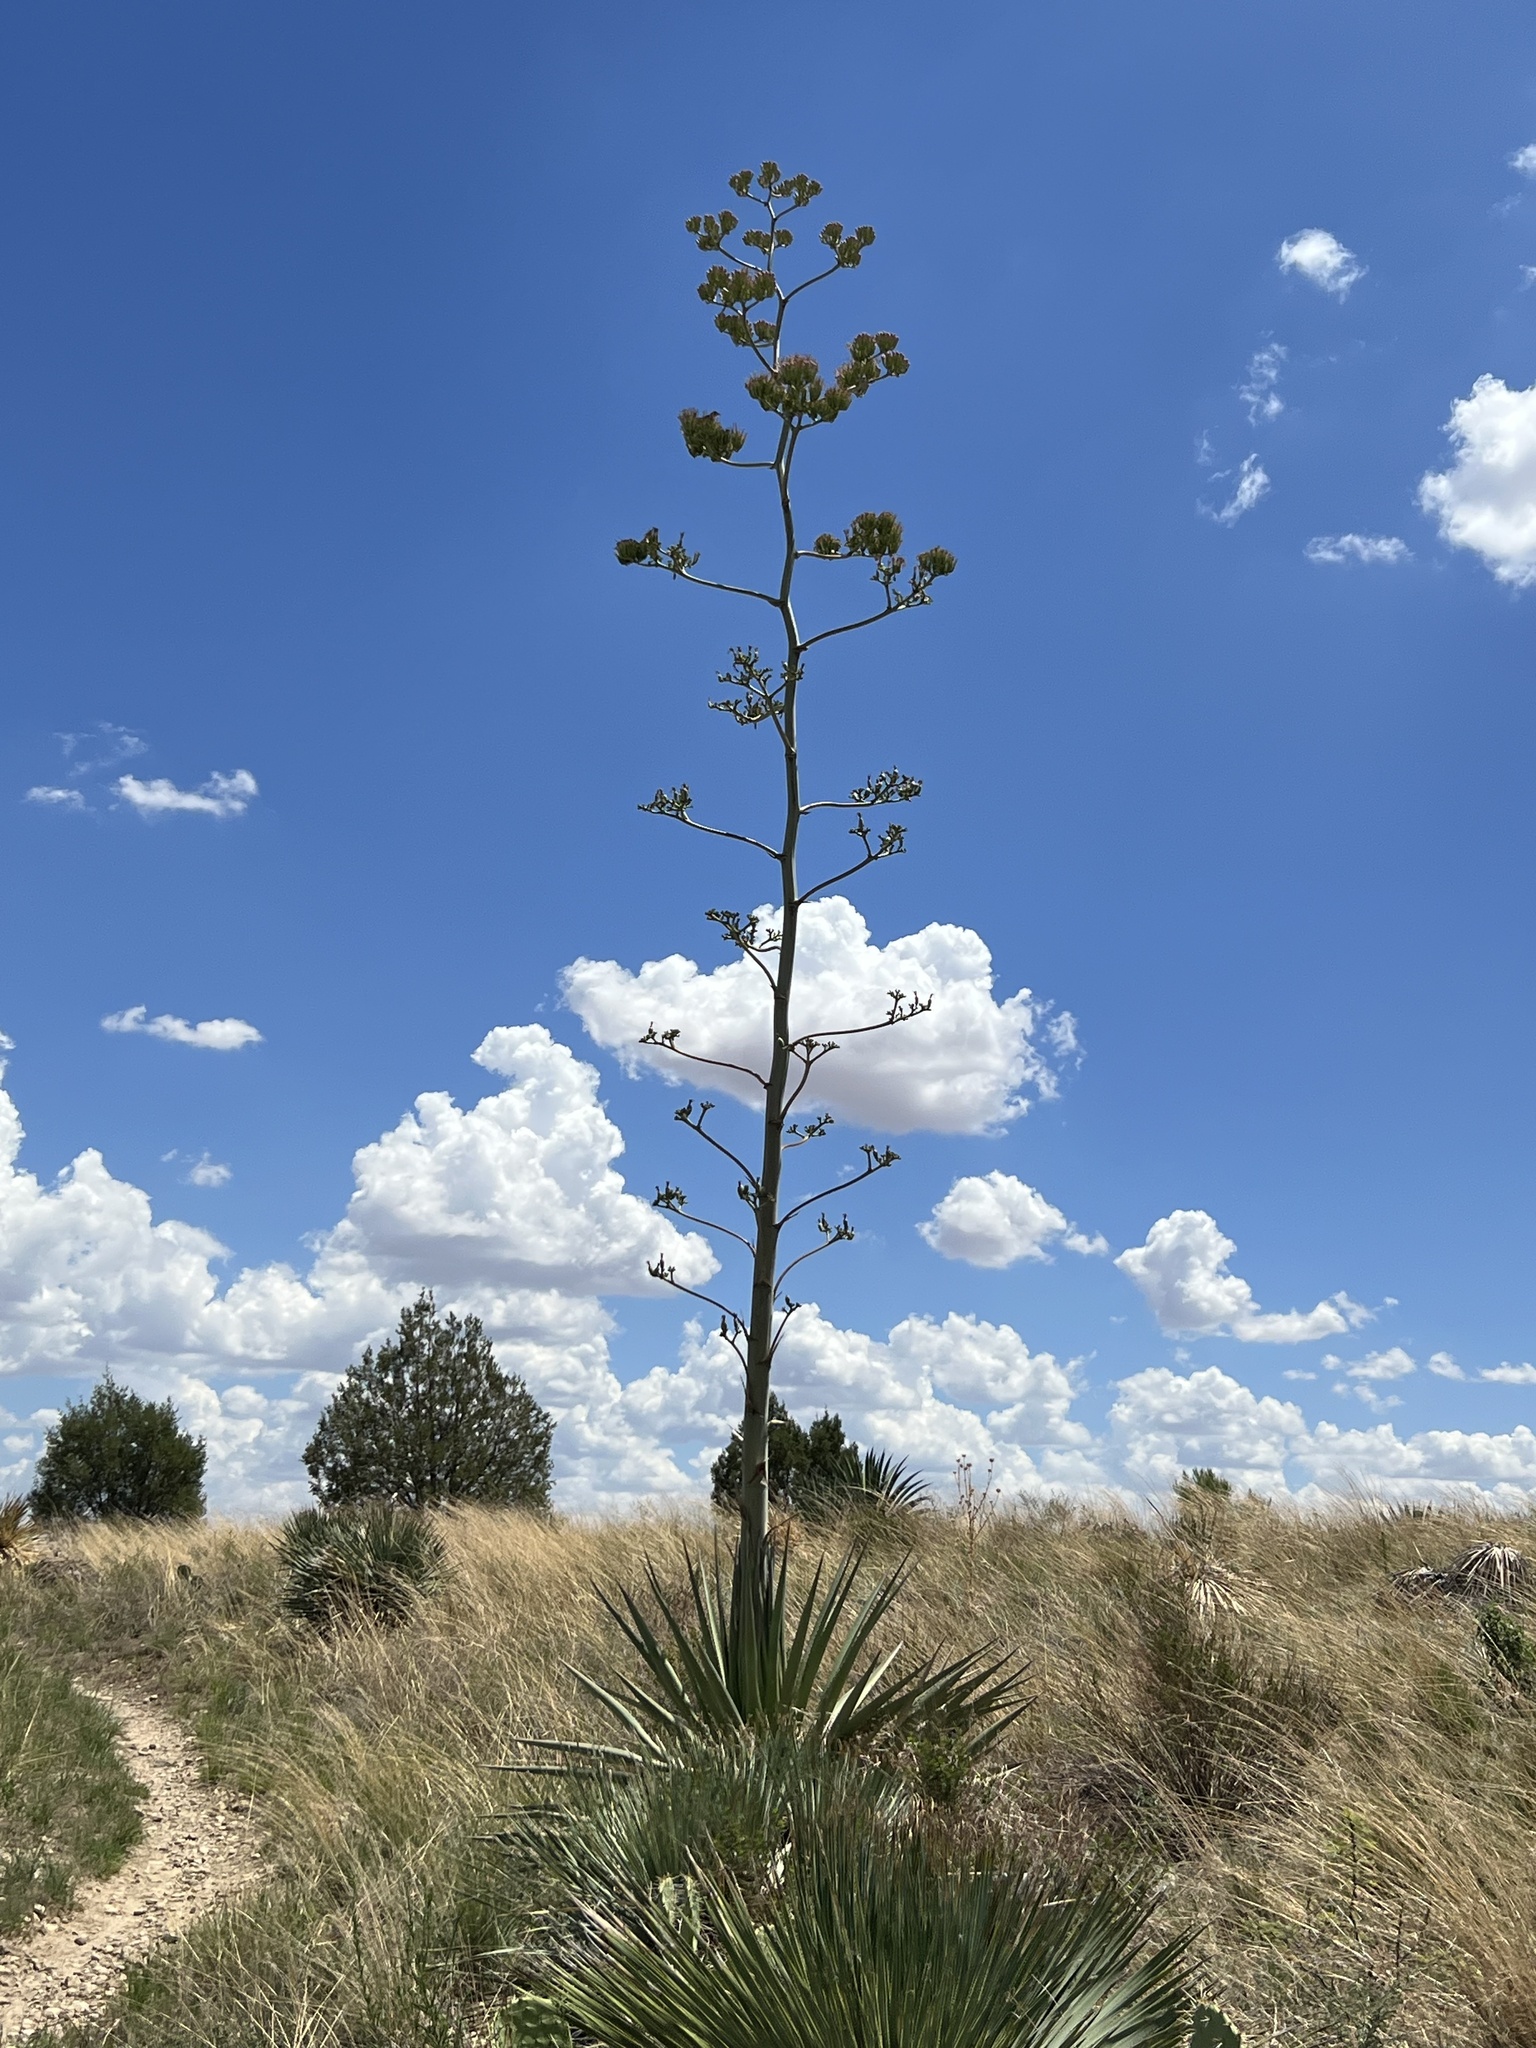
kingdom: Plantae
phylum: Tracheophyta
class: Liliopsida
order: Asparagales
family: Asparagaceae
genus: Agave
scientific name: Agave palmeri
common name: Palmer agave
